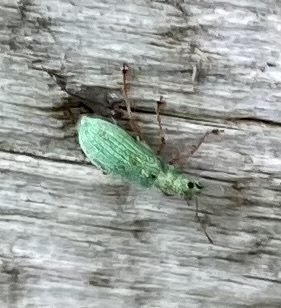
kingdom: Animalia
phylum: Arthropoda
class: Insecta
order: Coleoptera
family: Curculionidae
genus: Polydrusus
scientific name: Polydrusus impressifrons
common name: Weevil
